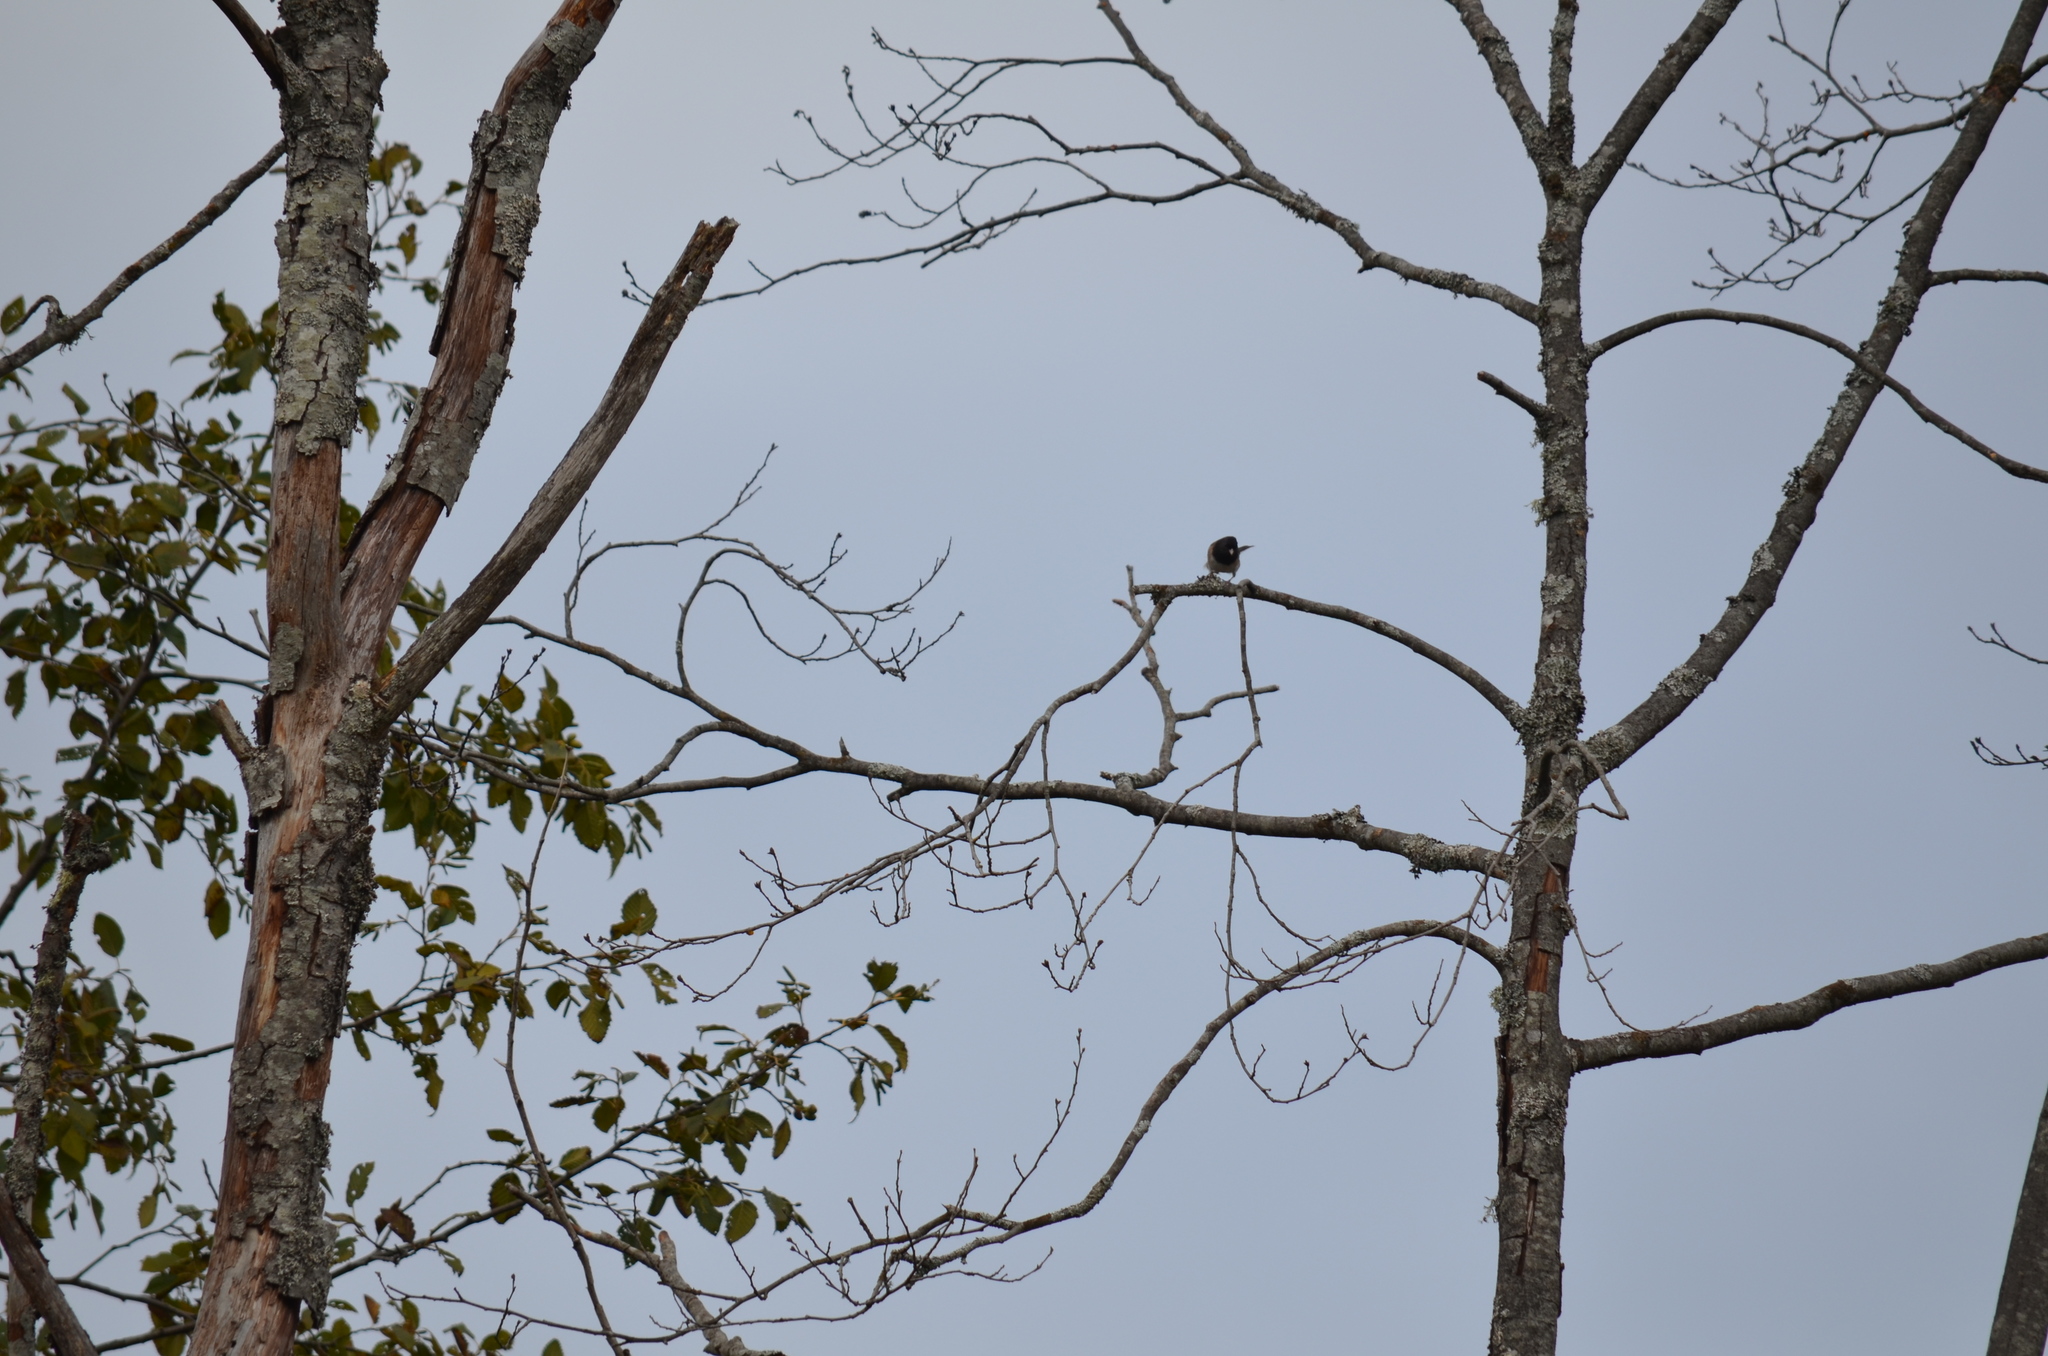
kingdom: Animalia
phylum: Chordata
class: Aves
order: Passeriformes
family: Passerellidae
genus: Junco
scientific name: Junco hyemalis
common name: Dark-eyed junco
